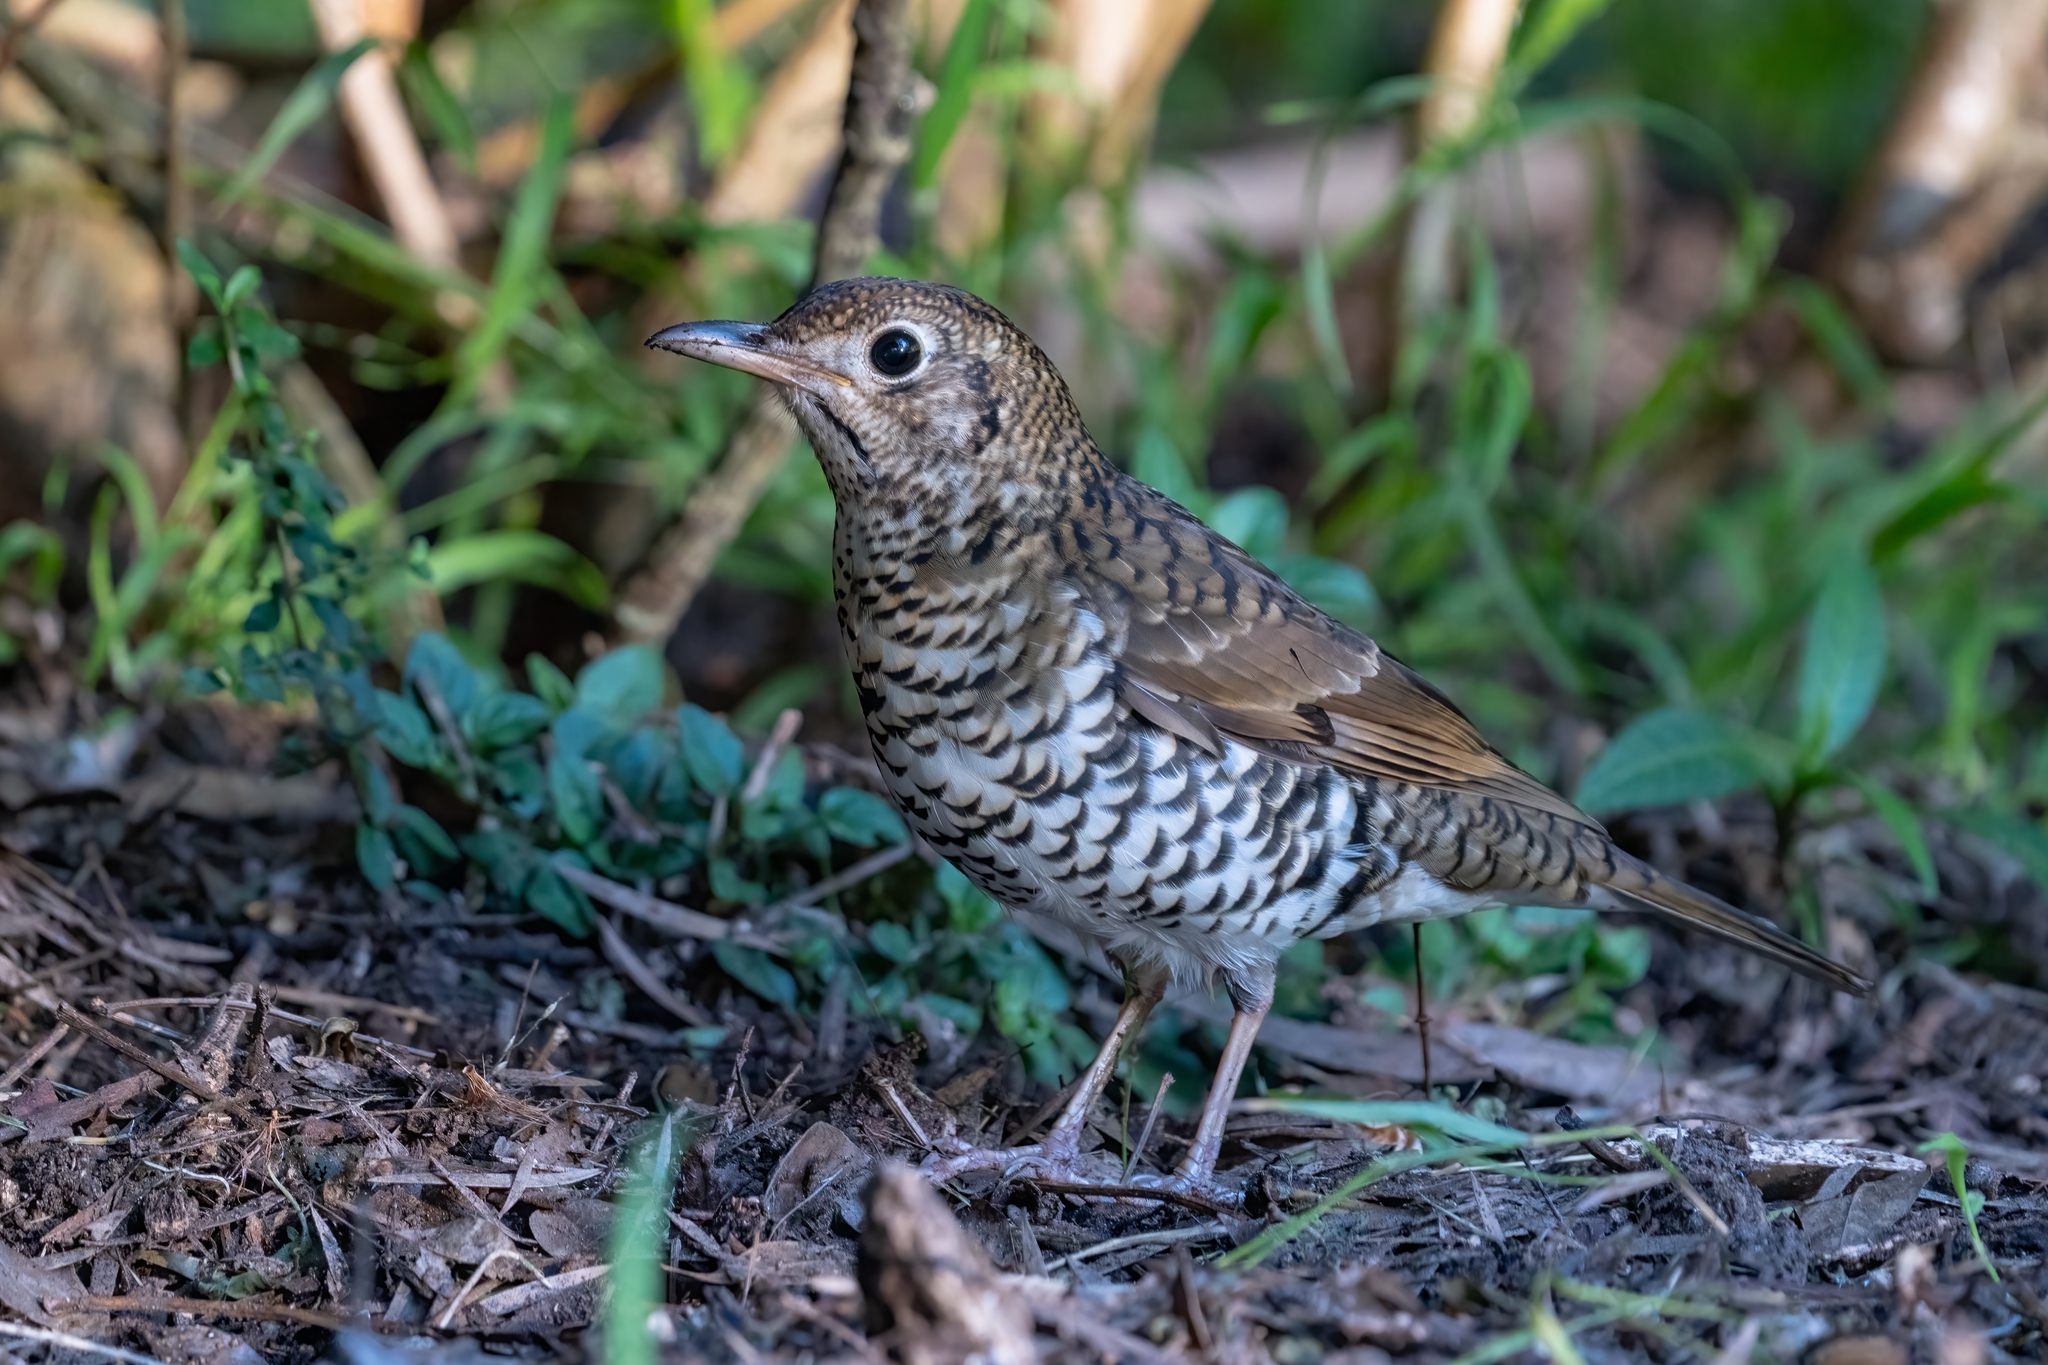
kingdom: Animalia
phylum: Chordata
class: Aves
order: Passeriformes
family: Turdidae
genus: Zoothera
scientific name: Zoothera lunulata
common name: Bassian thrush
